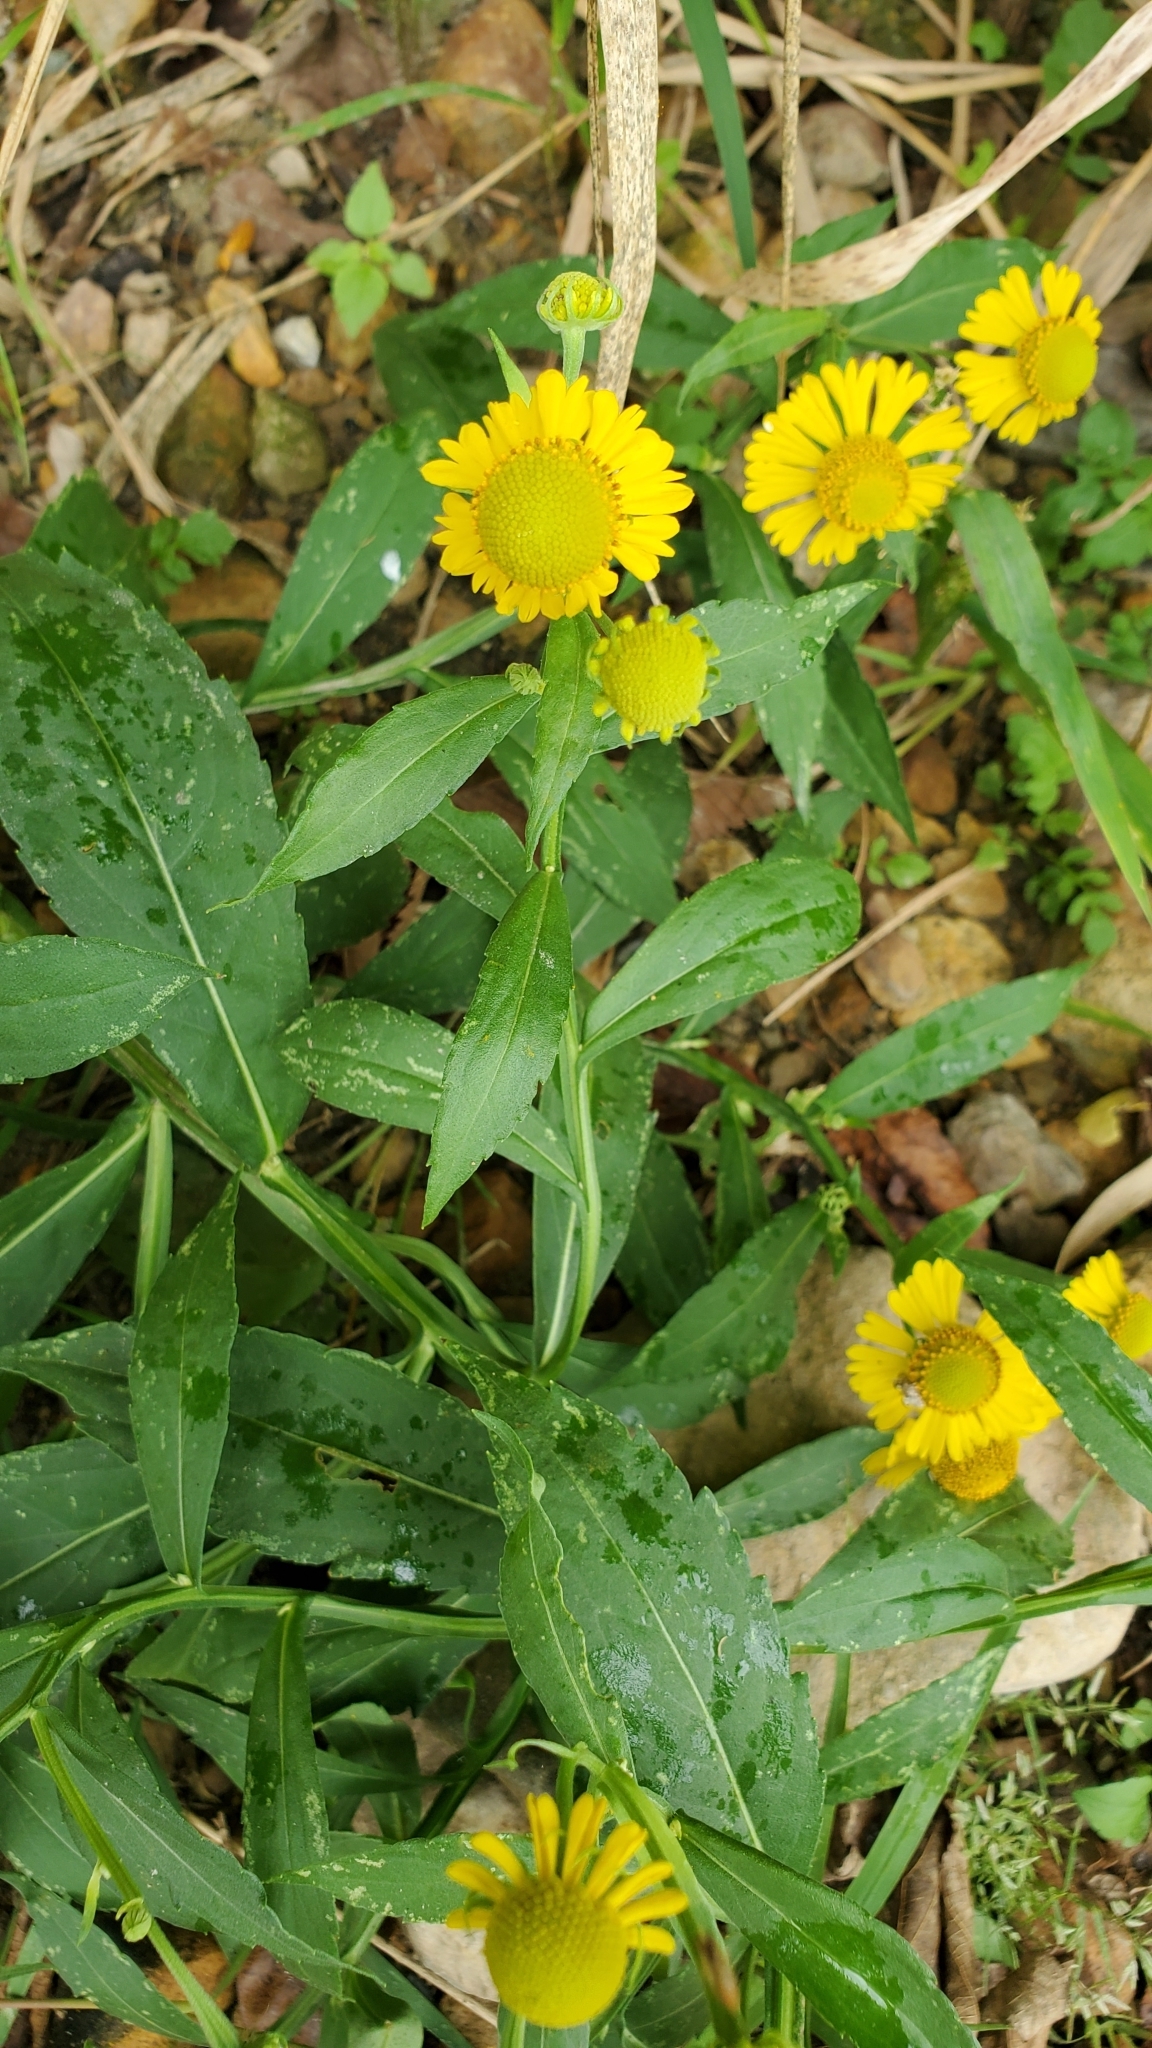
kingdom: Plantae
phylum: Tracheophyta
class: Magnoliopsida
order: Asterales
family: Asteraceae
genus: Helenium
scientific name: Helenium autumnale
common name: Sneezeweed
